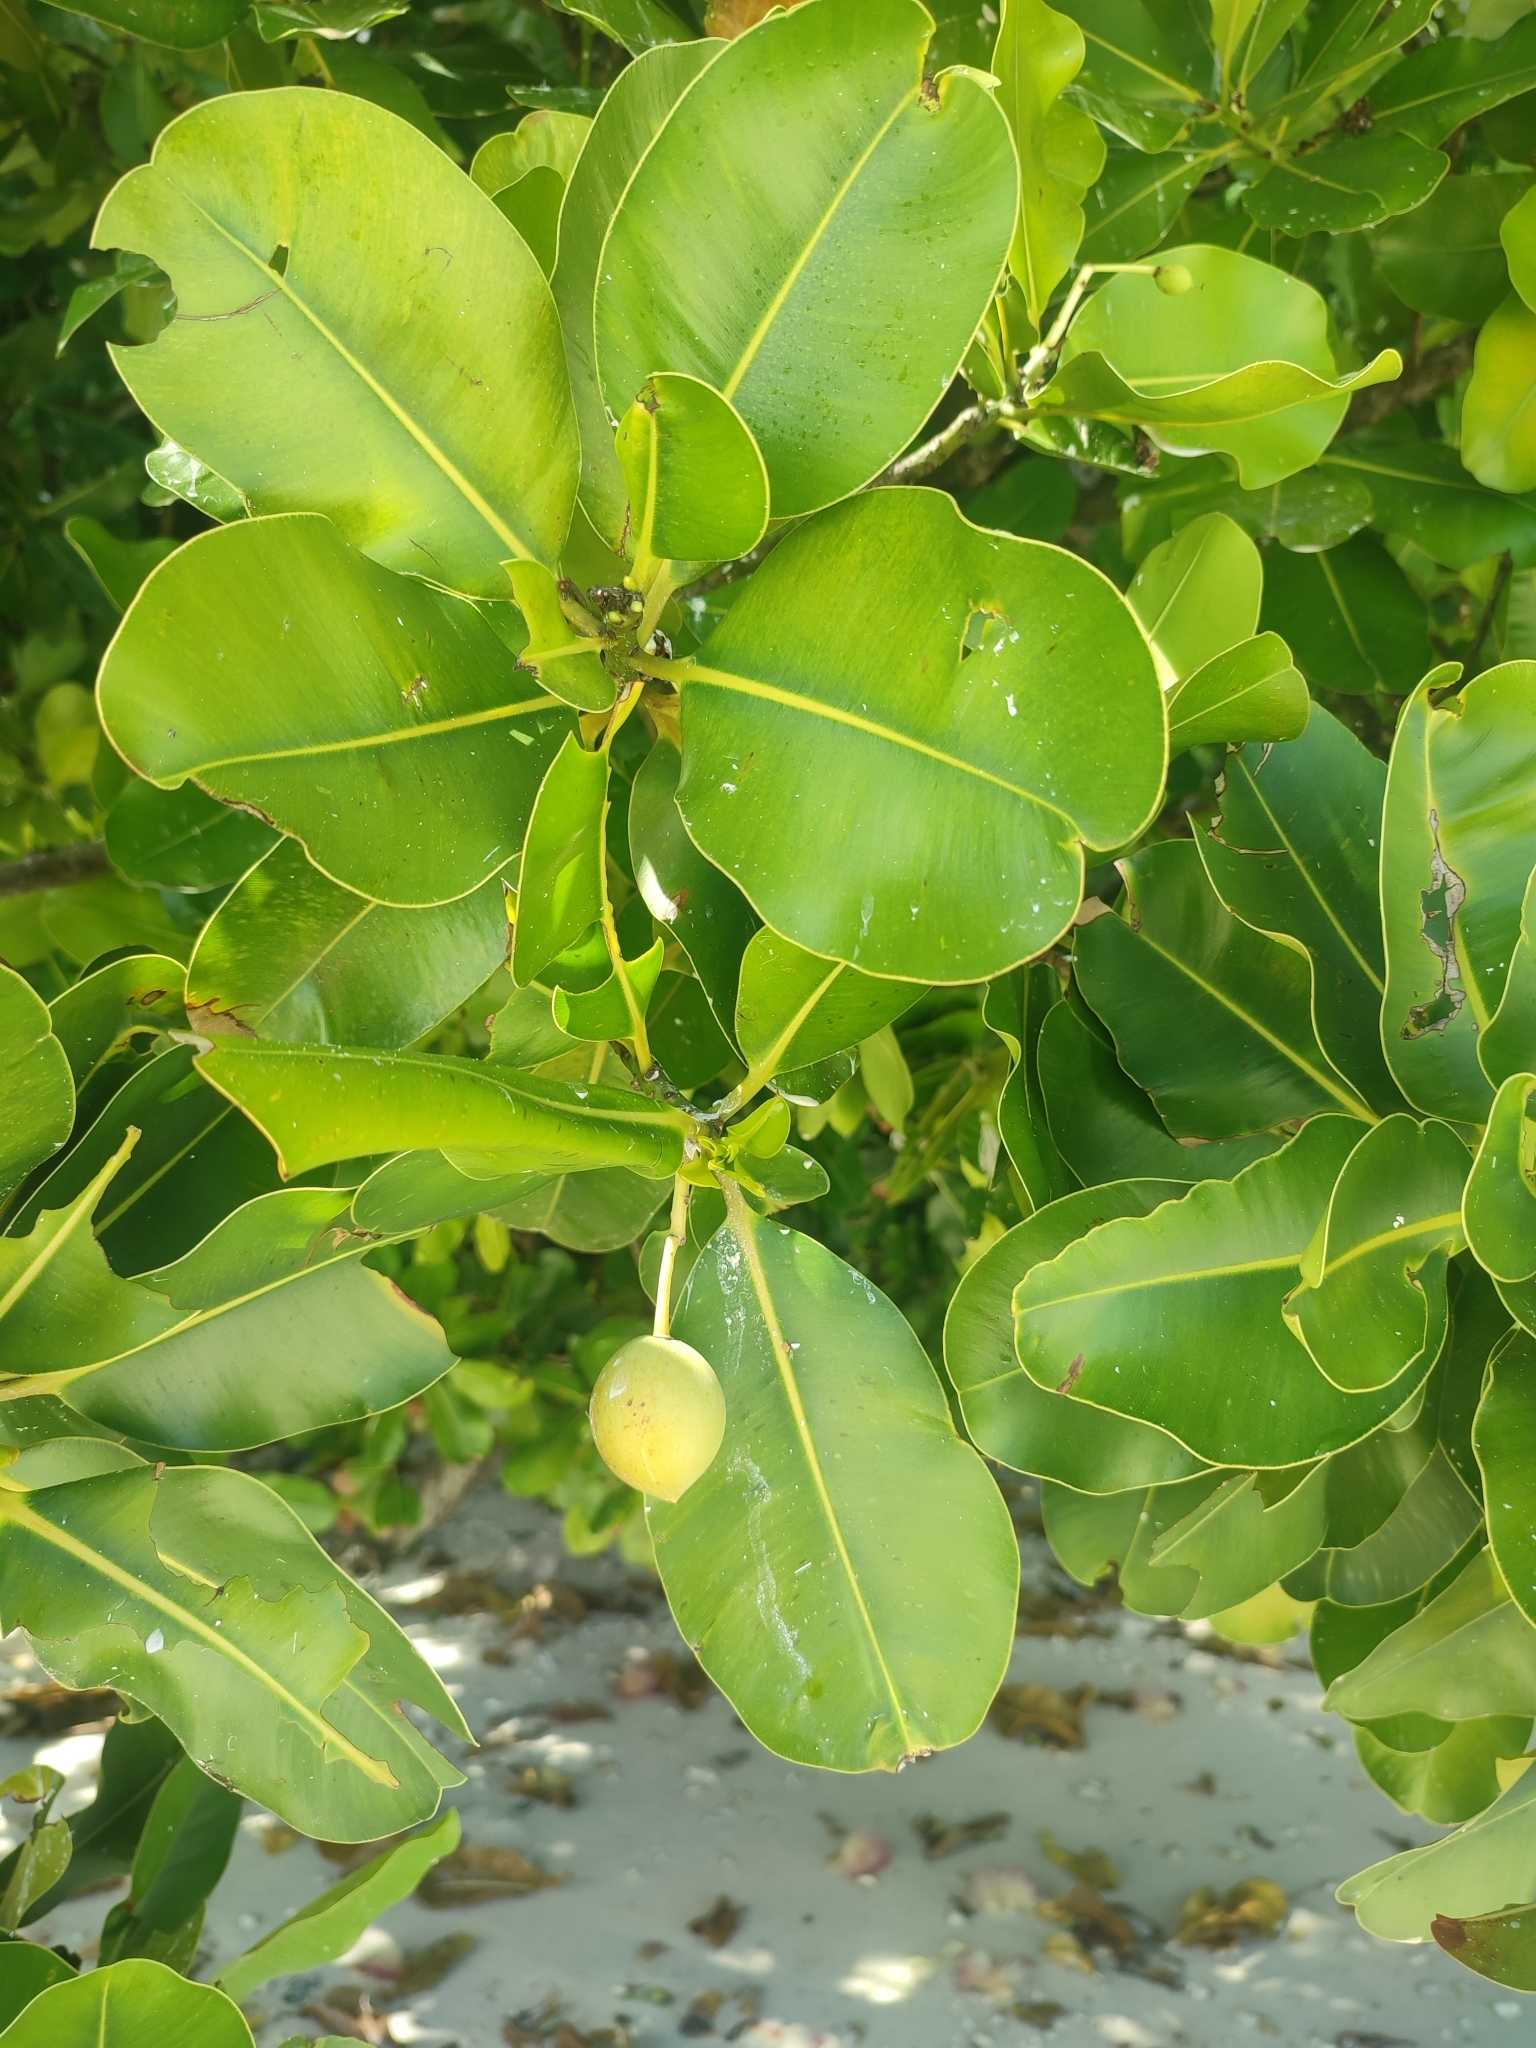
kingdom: Plantae
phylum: Tracheophyta
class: Magnoliopsida
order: Malpighiales
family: Calophyllaceae
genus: Calophyllum
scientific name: Calophyllum inophyllum
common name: Alexandrian laurel
